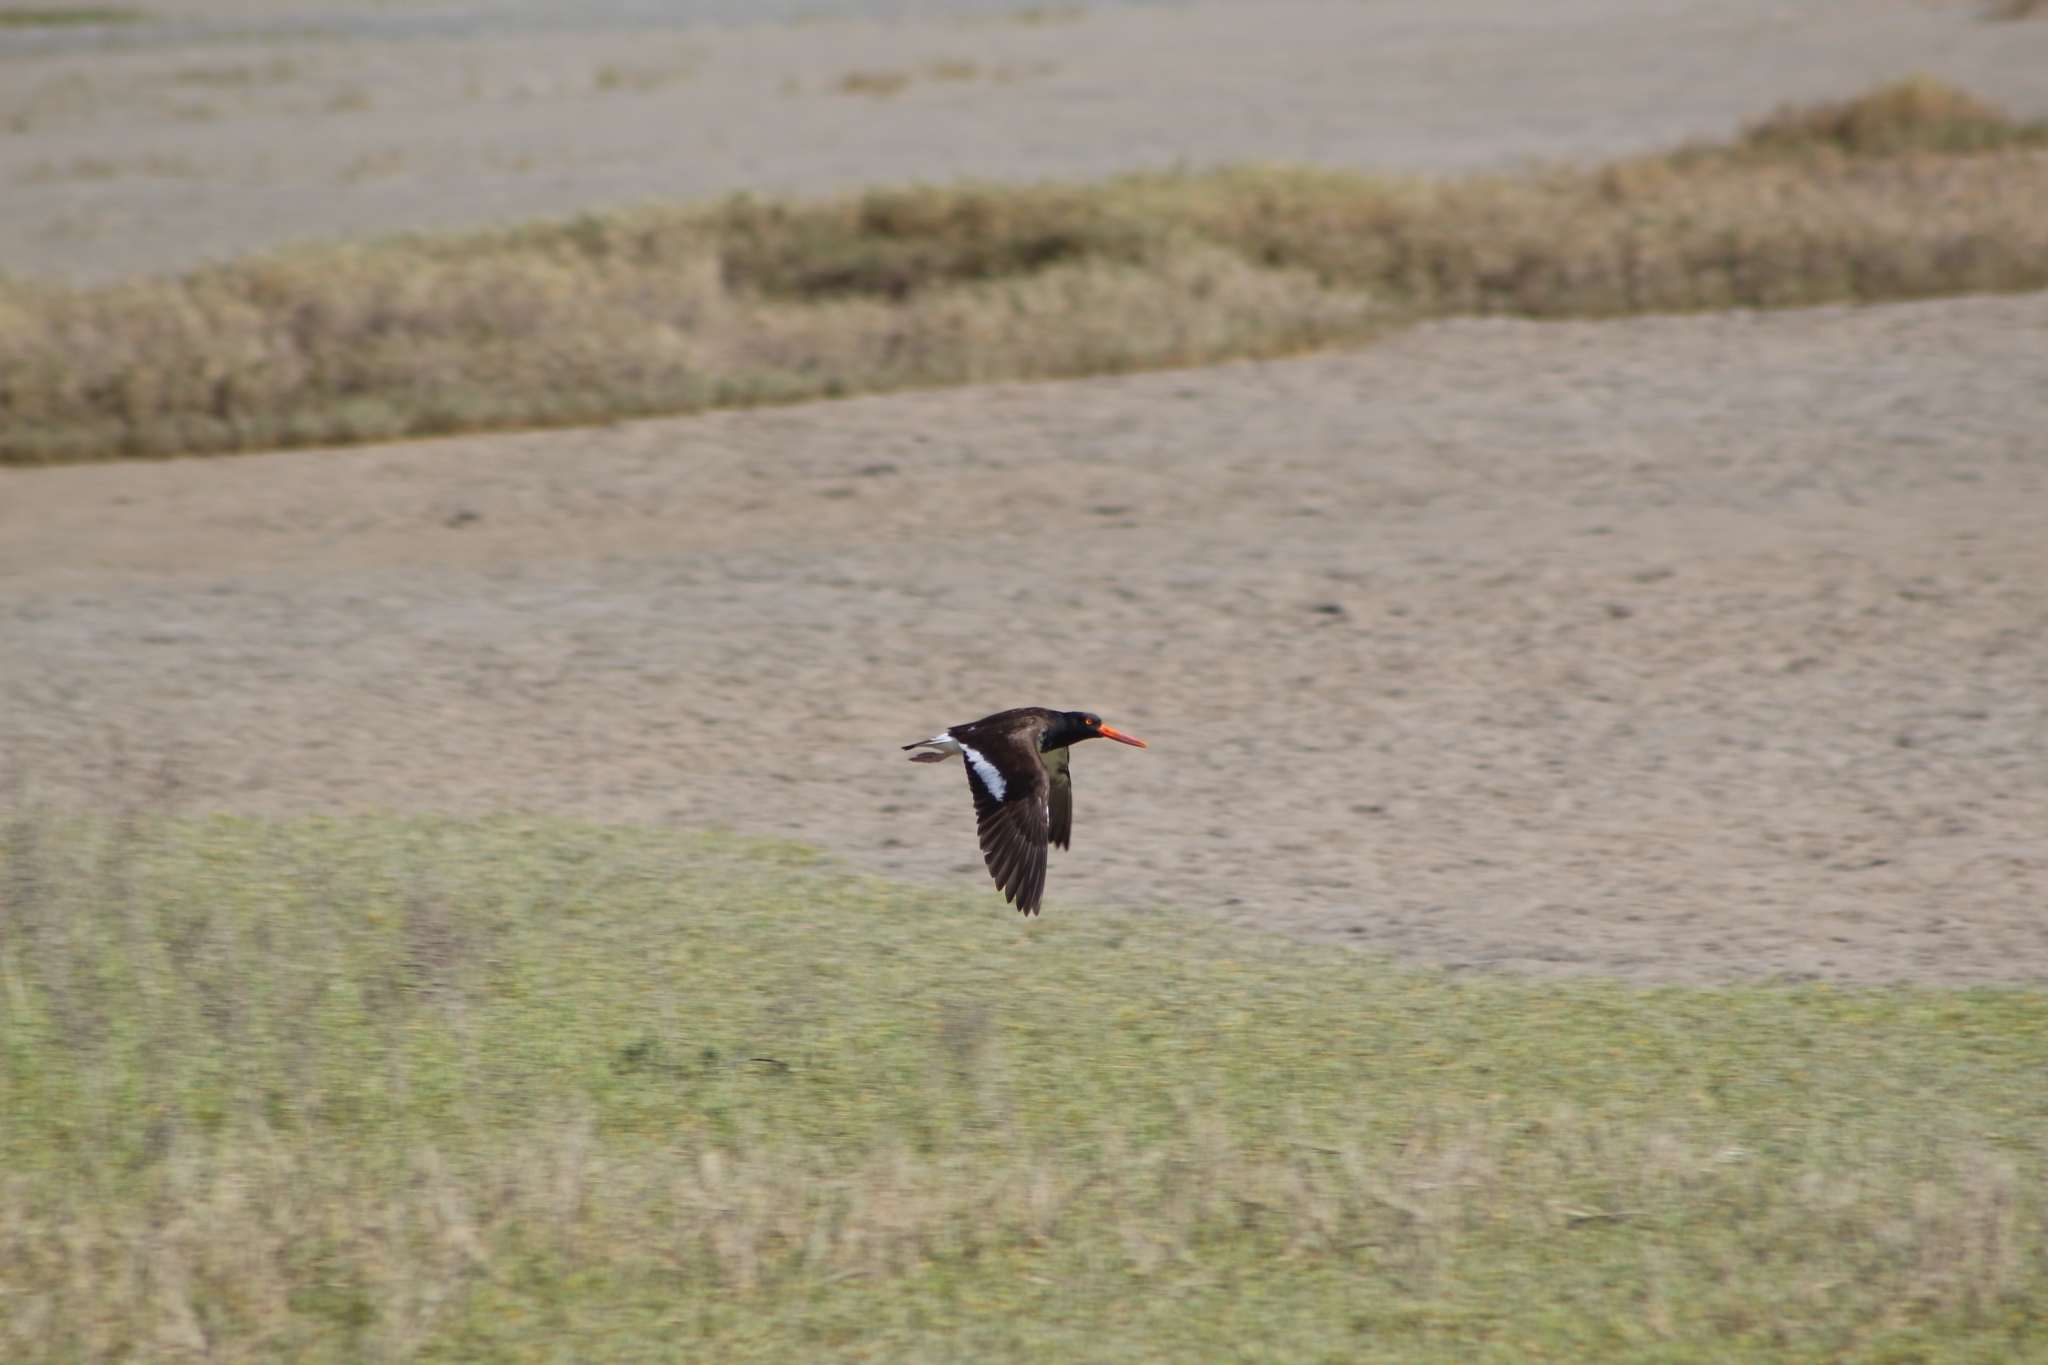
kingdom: Animalia
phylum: Chordata
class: Aves
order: Charadriiformes
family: Haematopodidae
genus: Haematopus
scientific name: Haematopus palliatus
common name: American oystercatcher
